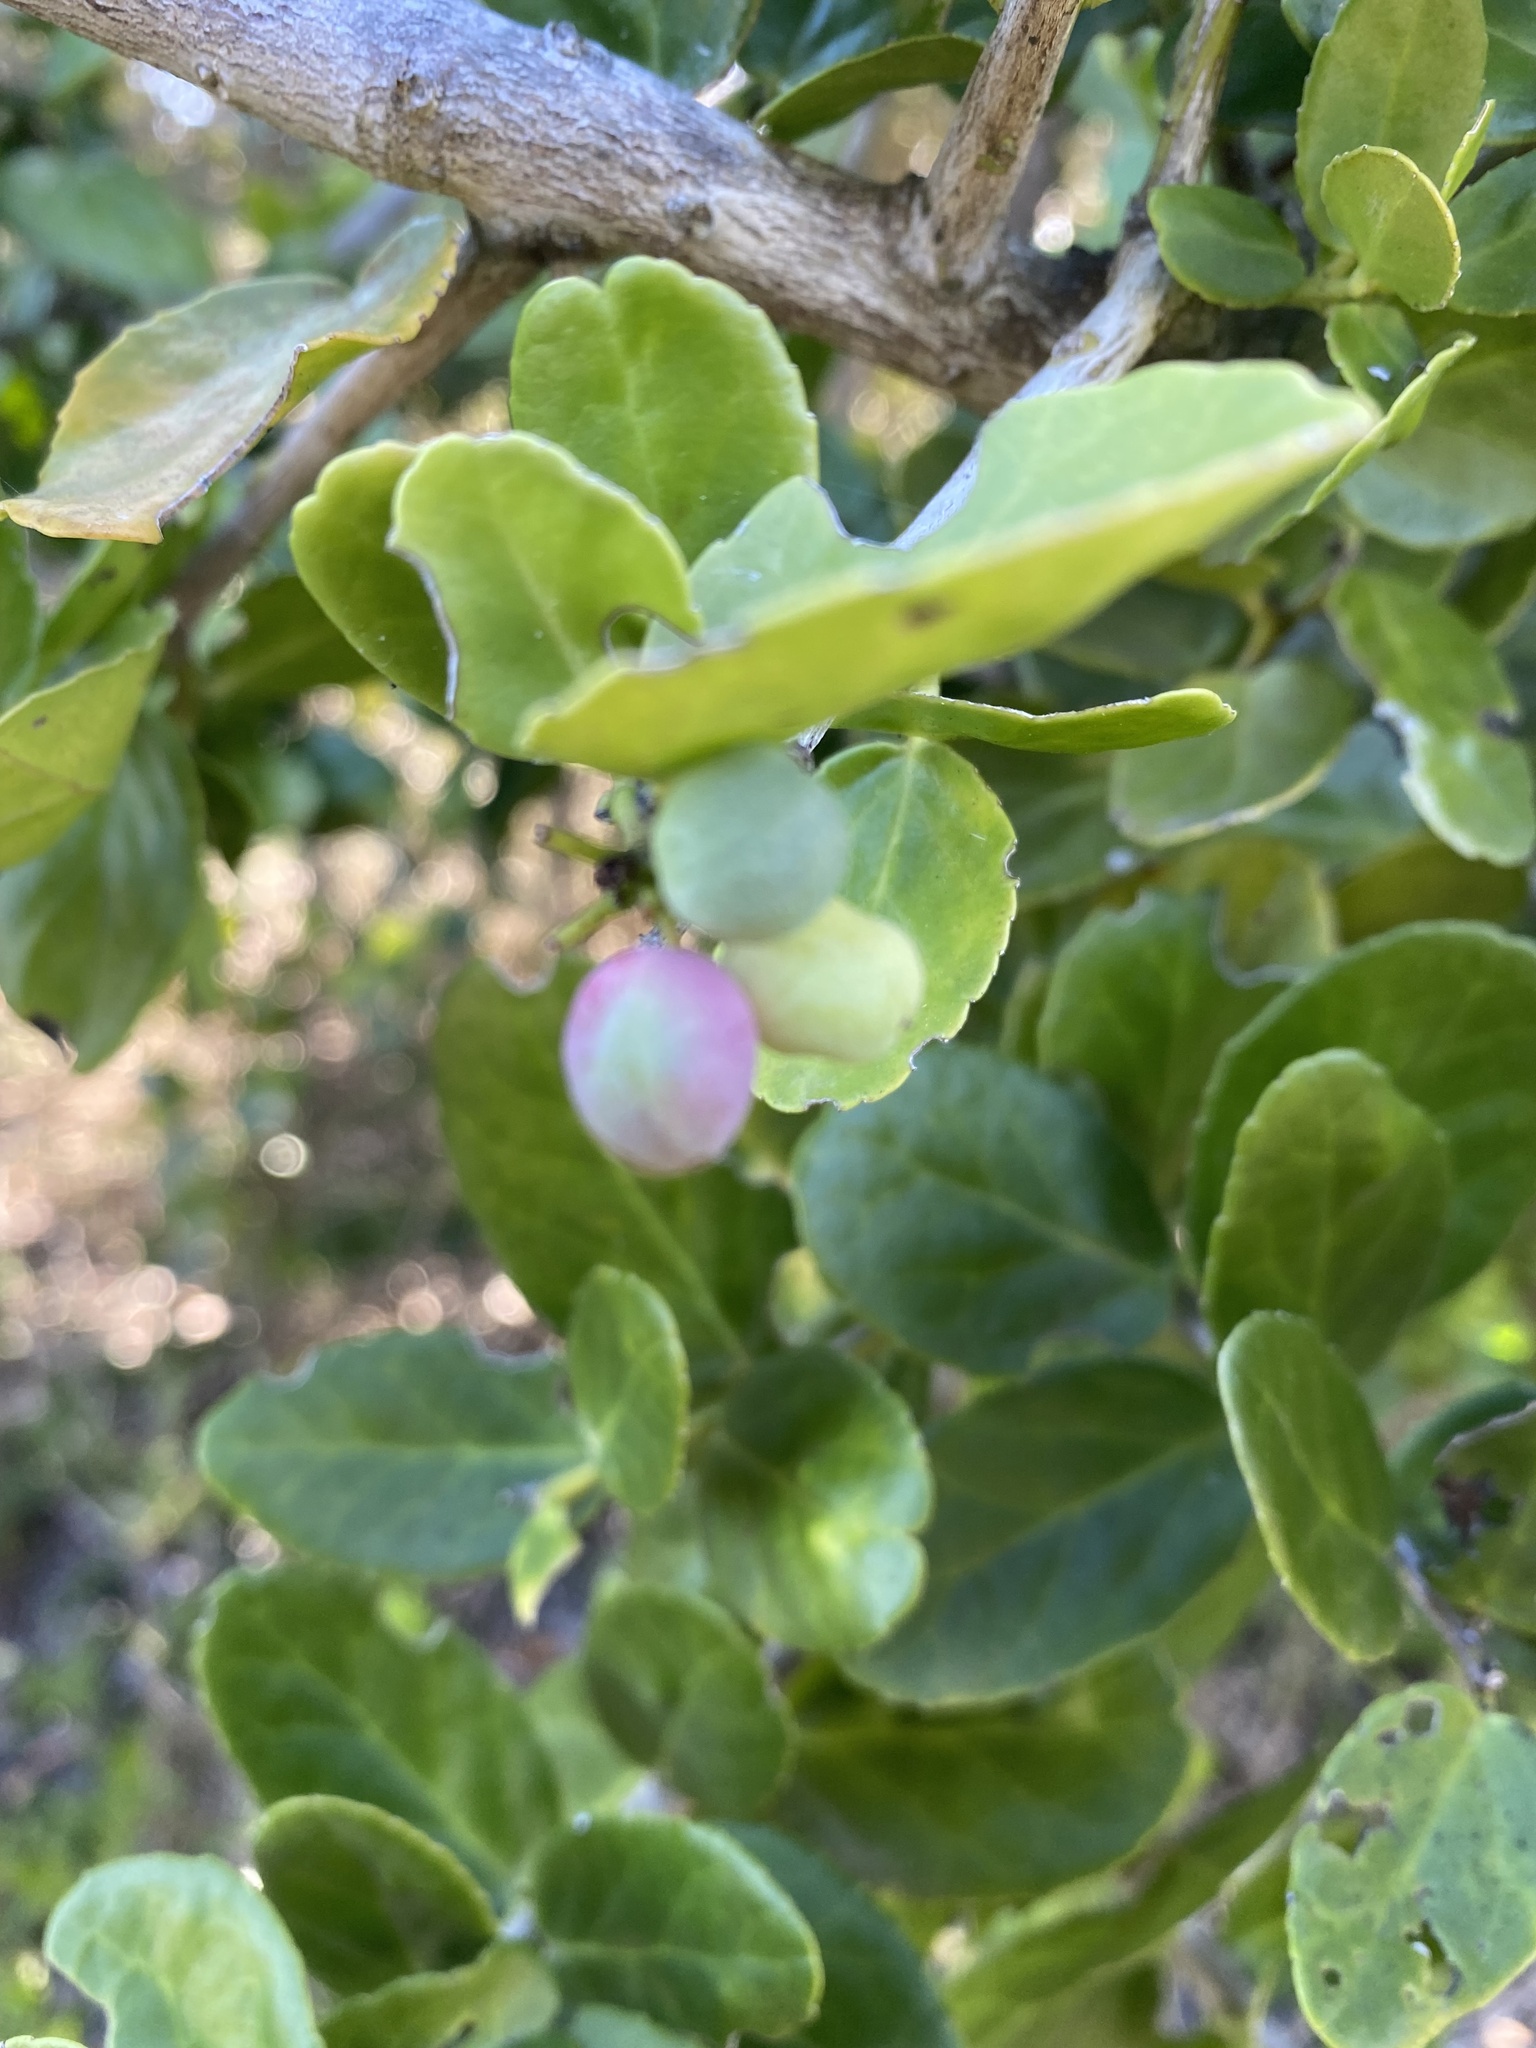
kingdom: Plantae
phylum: Tracheophyta
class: Magnoliopsida
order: Celastrales
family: Celastraceae
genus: Mystroxylon
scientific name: Mystroxylon aethiopicum
